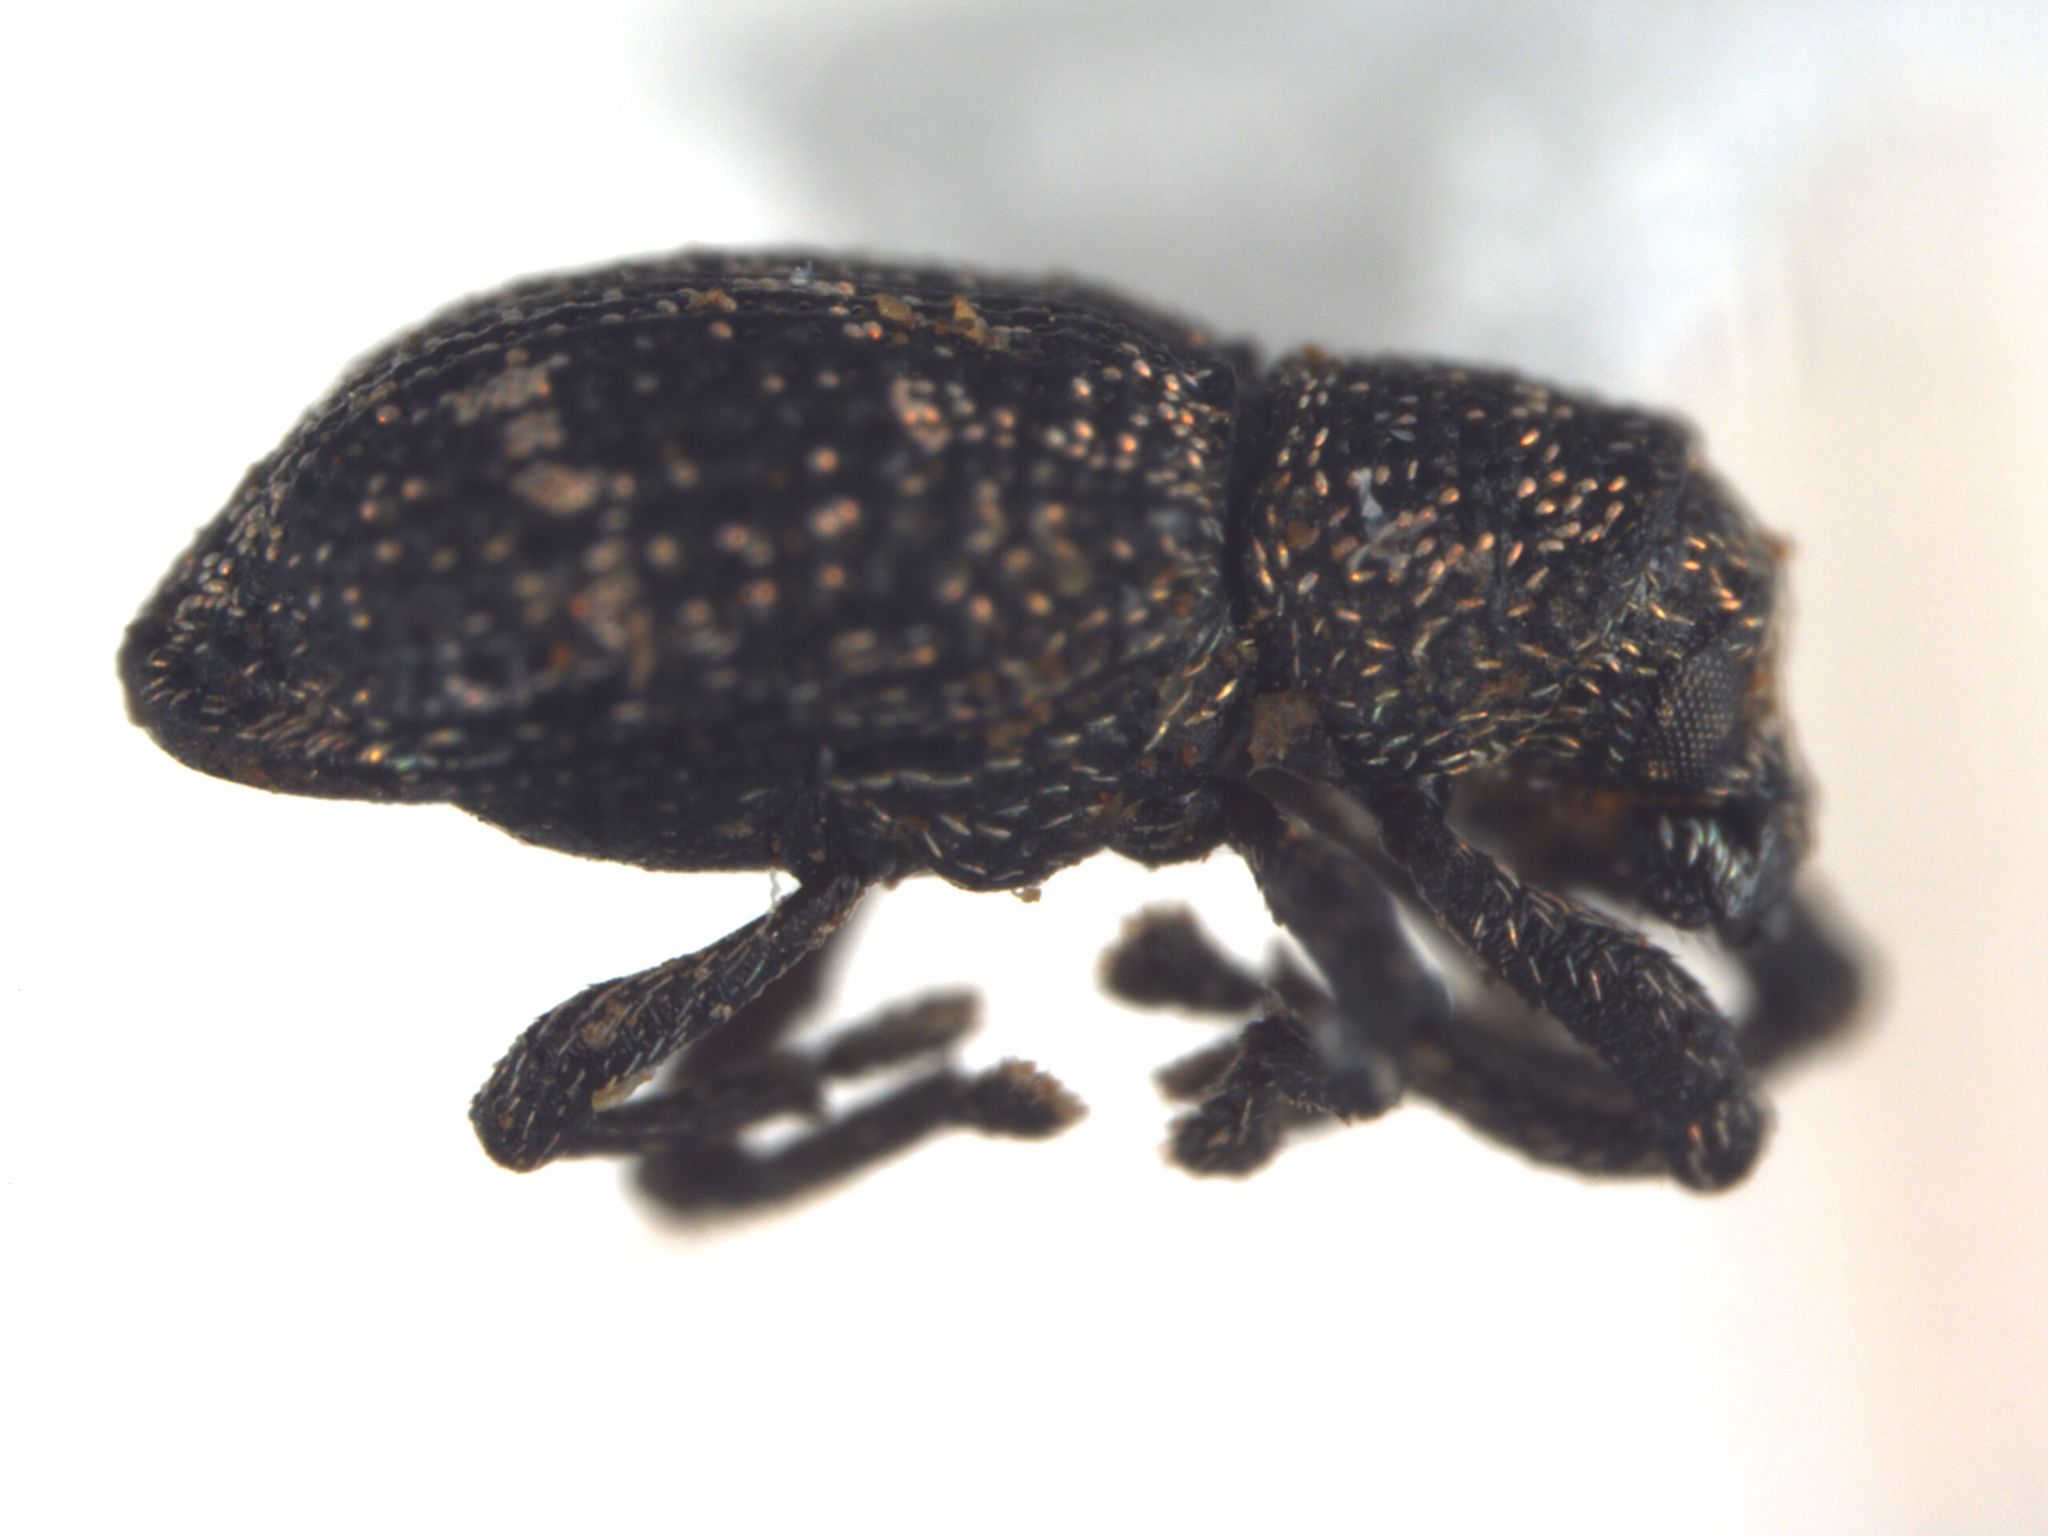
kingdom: Animalia
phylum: Arthropoda
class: Insecta
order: Coleoptera
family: Curculionidae
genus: Viticis
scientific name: Viticis bidentatus
